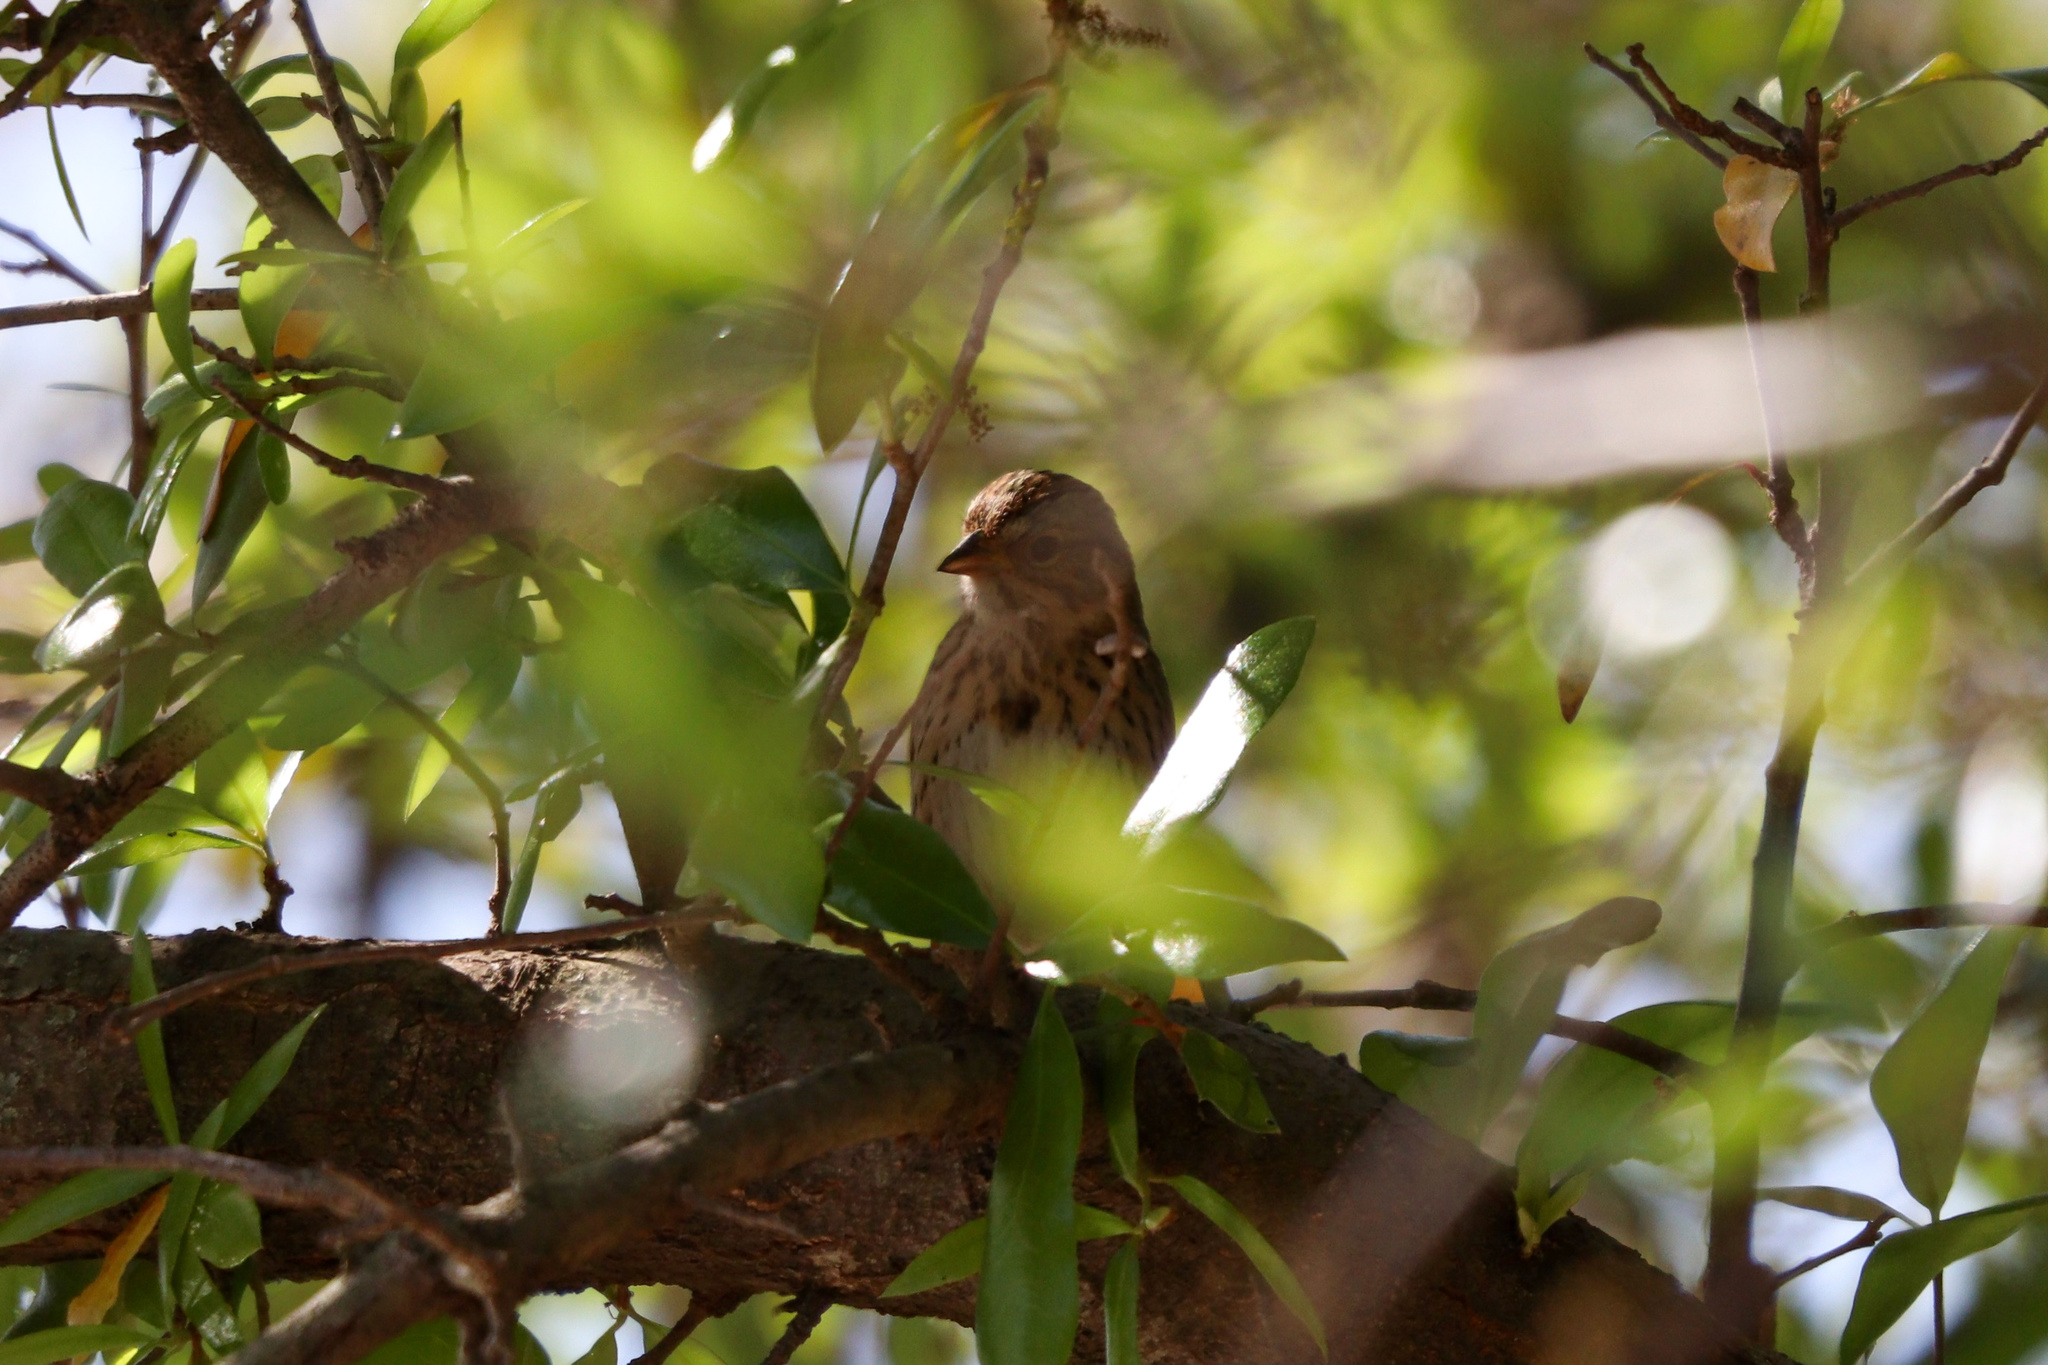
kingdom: Animalia
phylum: Chordata
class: Aves
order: Passeriformes
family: Passerellidae
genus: Melospiza
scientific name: Melospiza lincolnii
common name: Lincoln's sparrow
